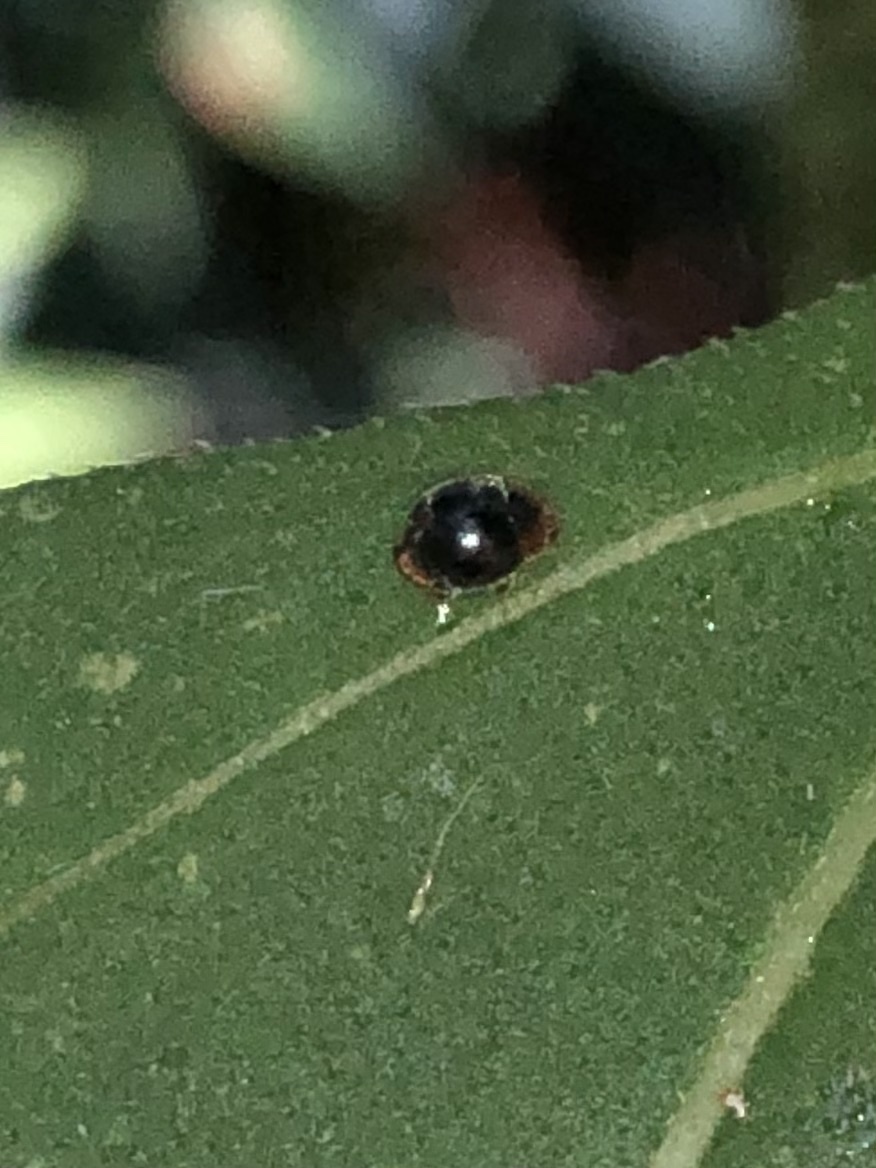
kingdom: Animalia
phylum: Arthropoda
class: Insecta
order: Coleoptera
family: Coccinellidae
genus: Cryptolaemus
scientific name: Cryptolaemus montrouzieri
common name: Mealybug destroyer
